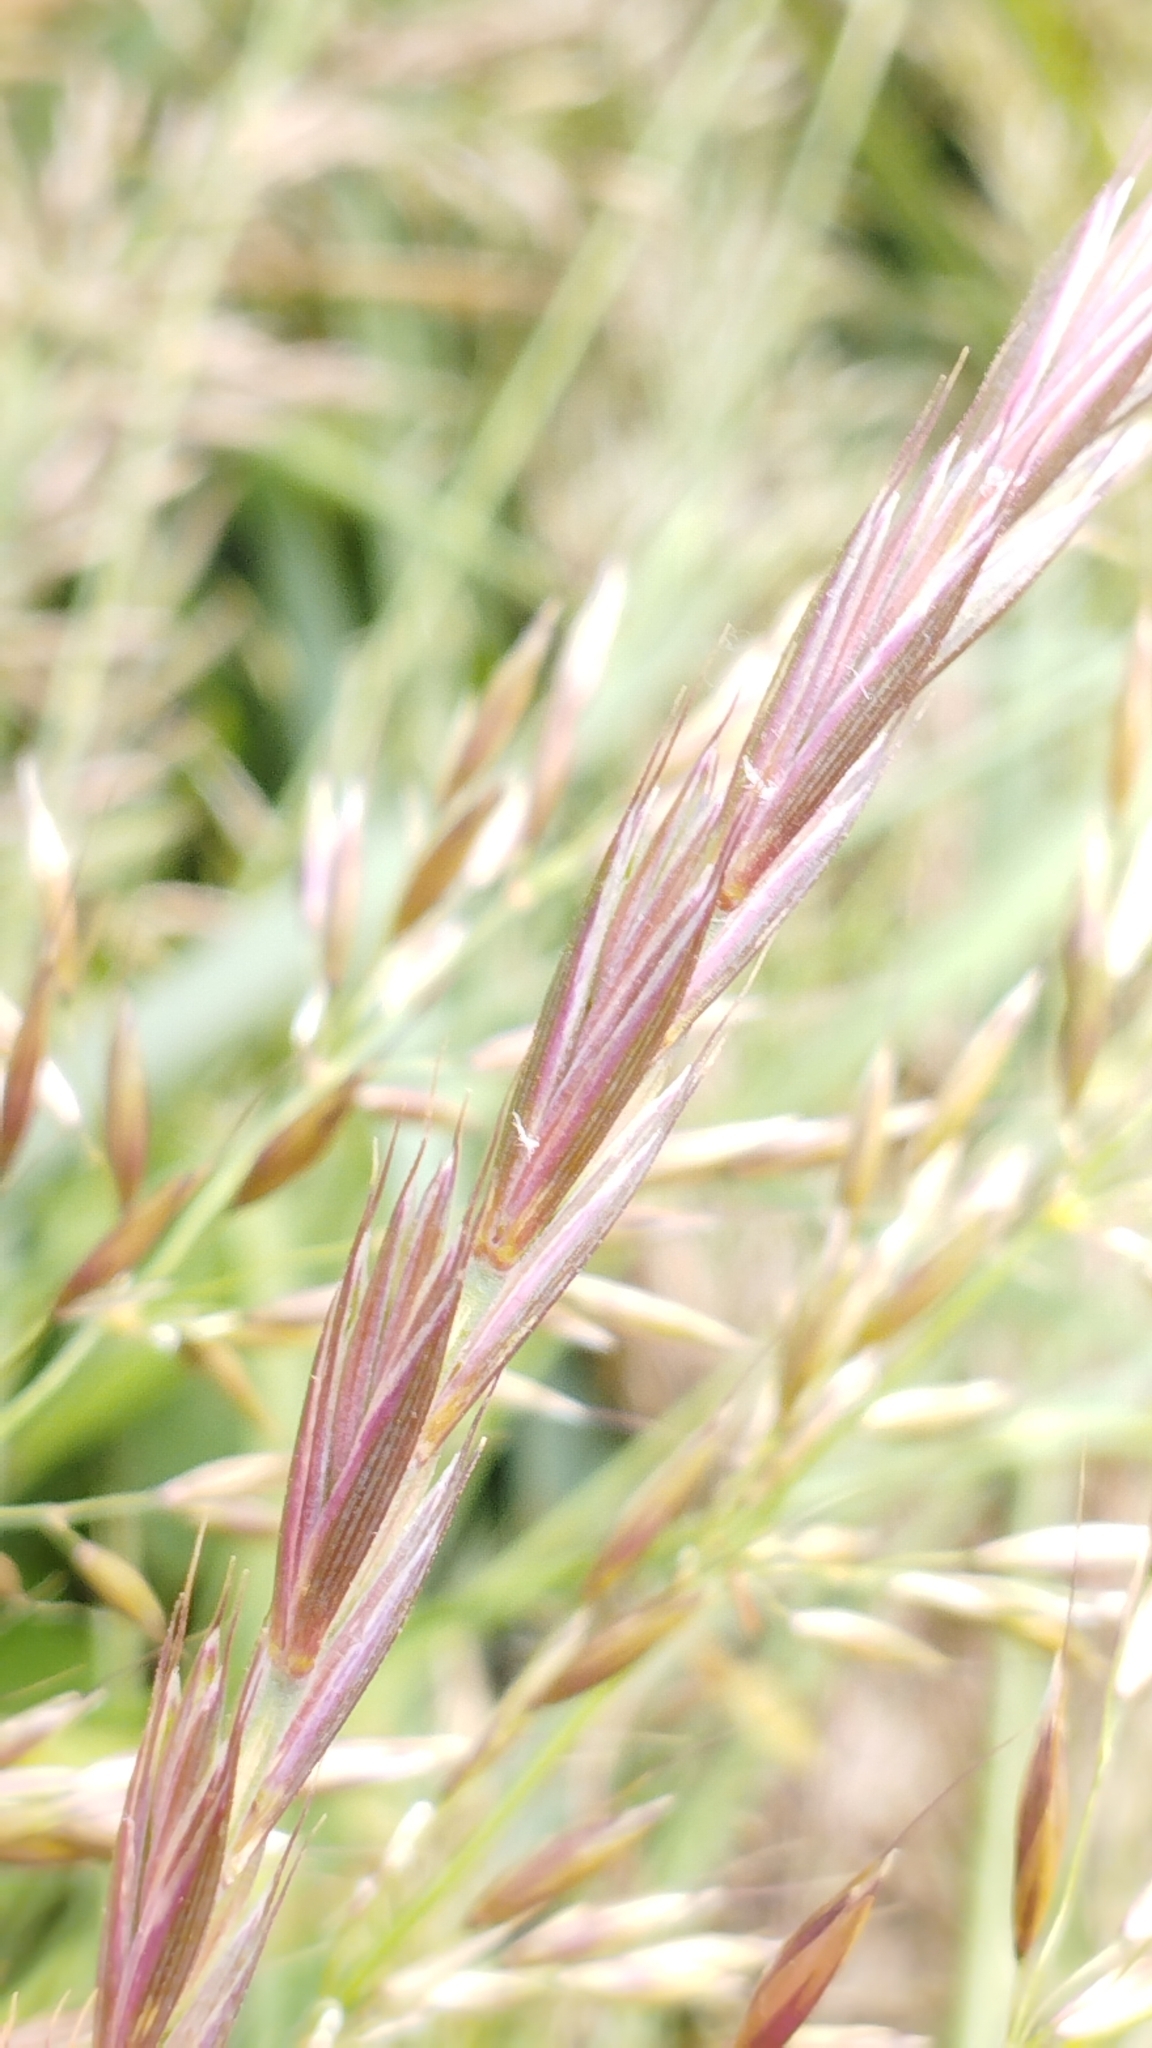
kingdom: Plantae
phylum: Tracheophyta
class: Liliopsida
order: Poales
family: Poaceae
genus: Elymus
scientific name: Elymus repens
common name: Quackgrass
